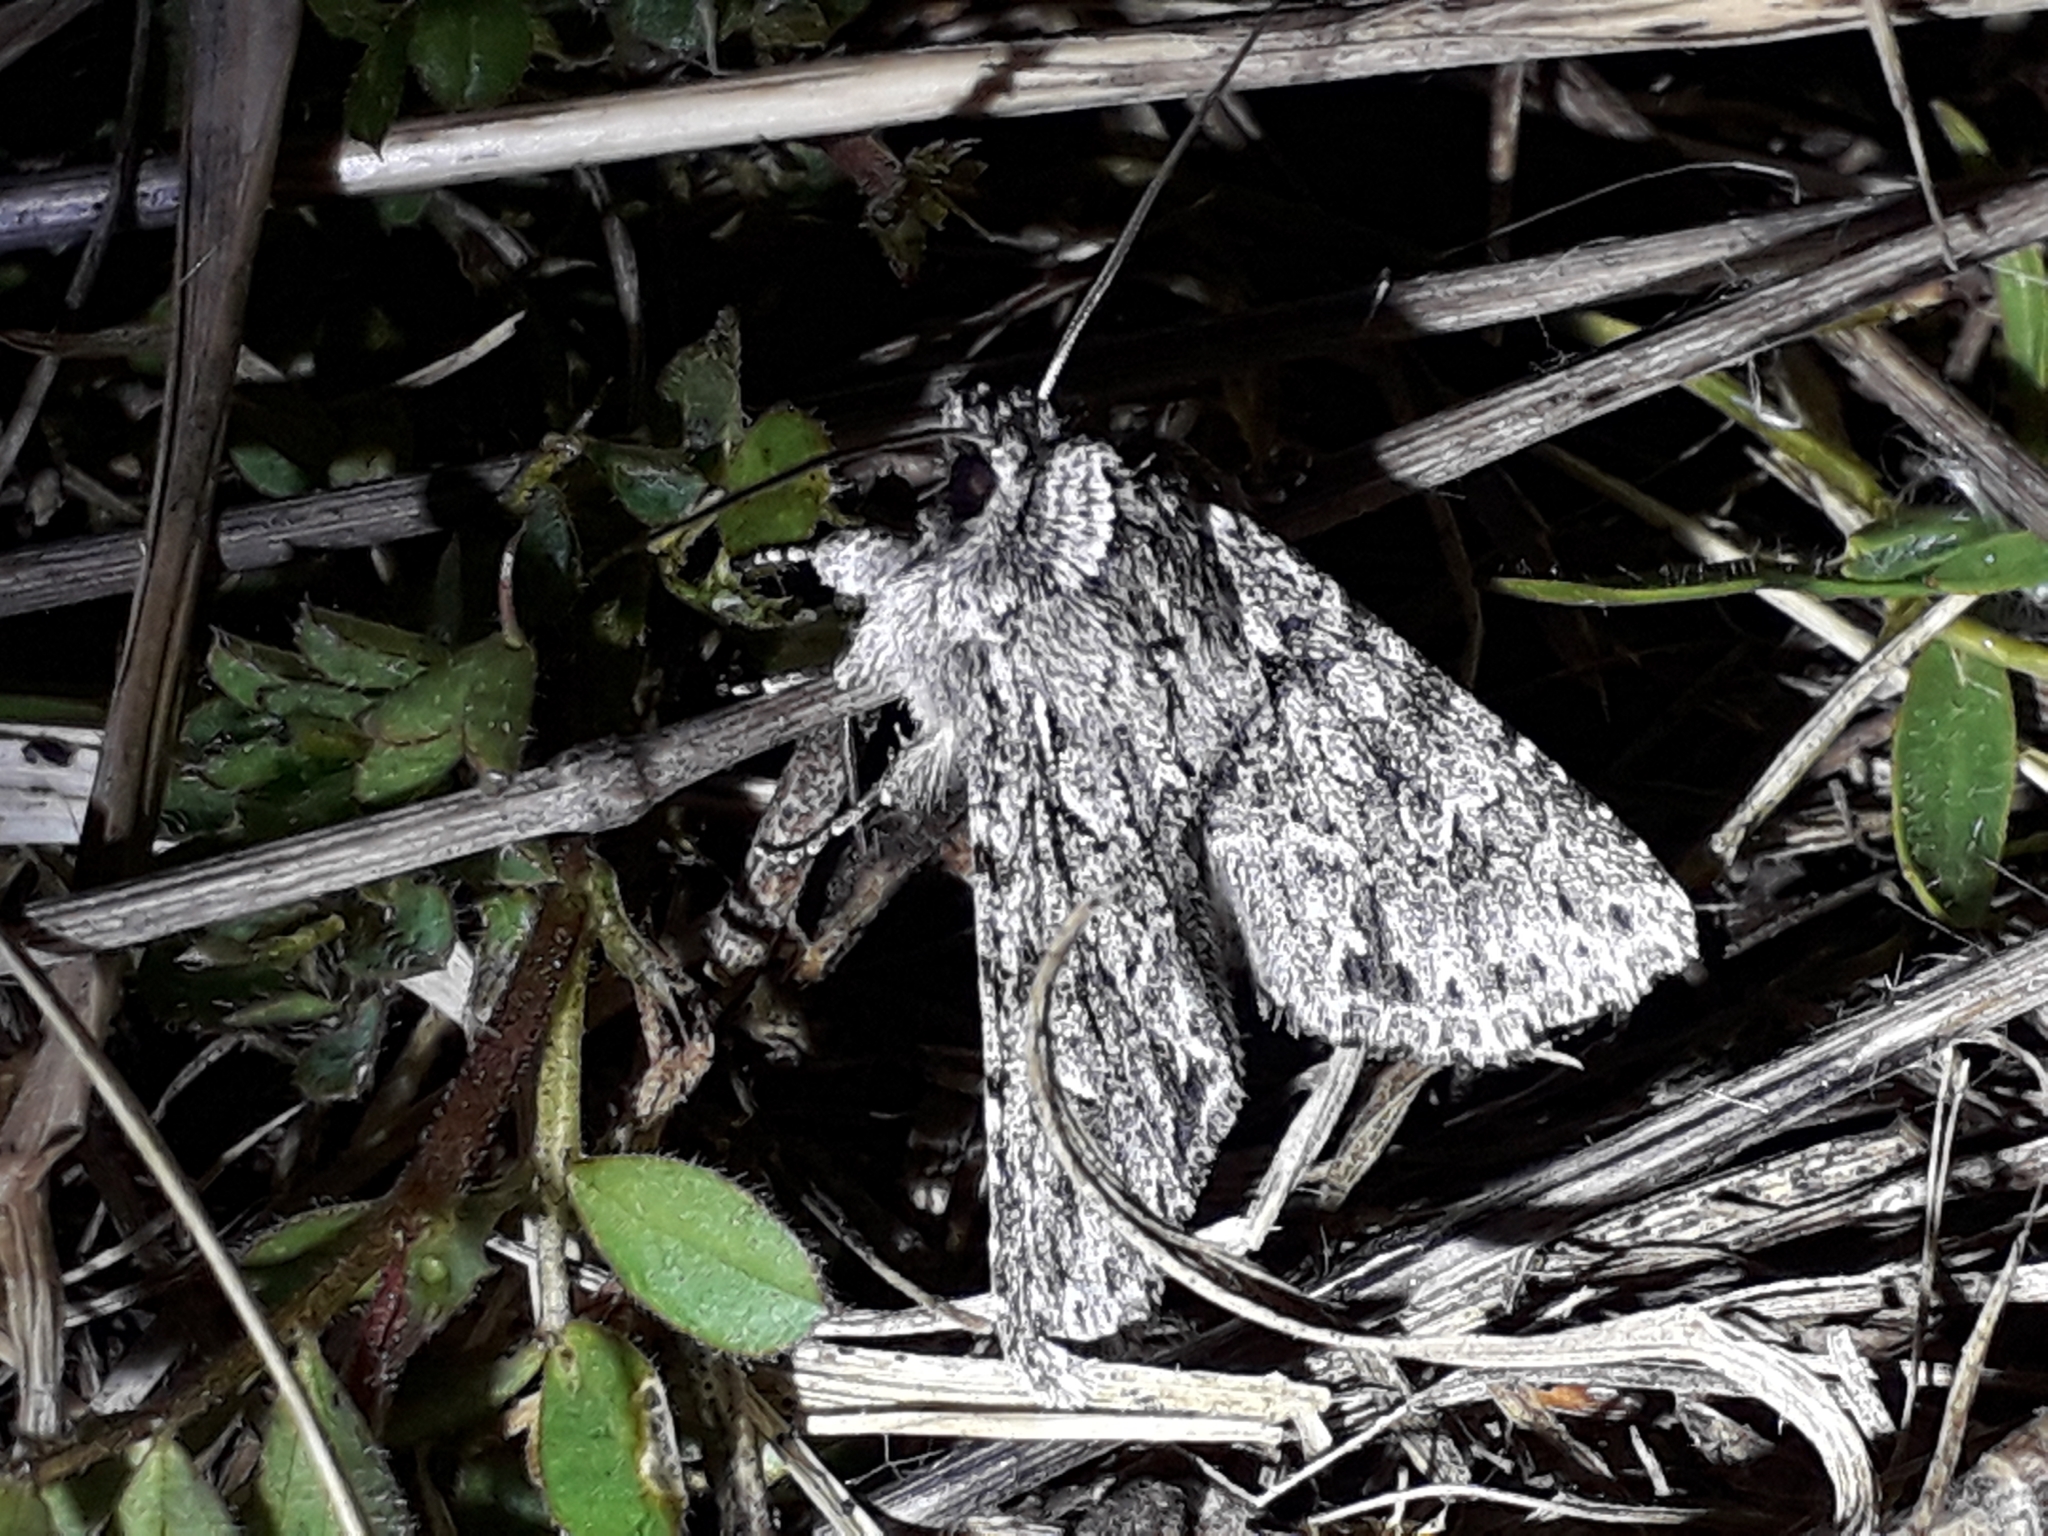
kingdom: Animalia
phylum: Arthropoda
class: Insecta
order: Lepidoptera
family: Noctuidae
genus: Xylocampa
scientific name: Xylocampa areola
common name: Early grey
